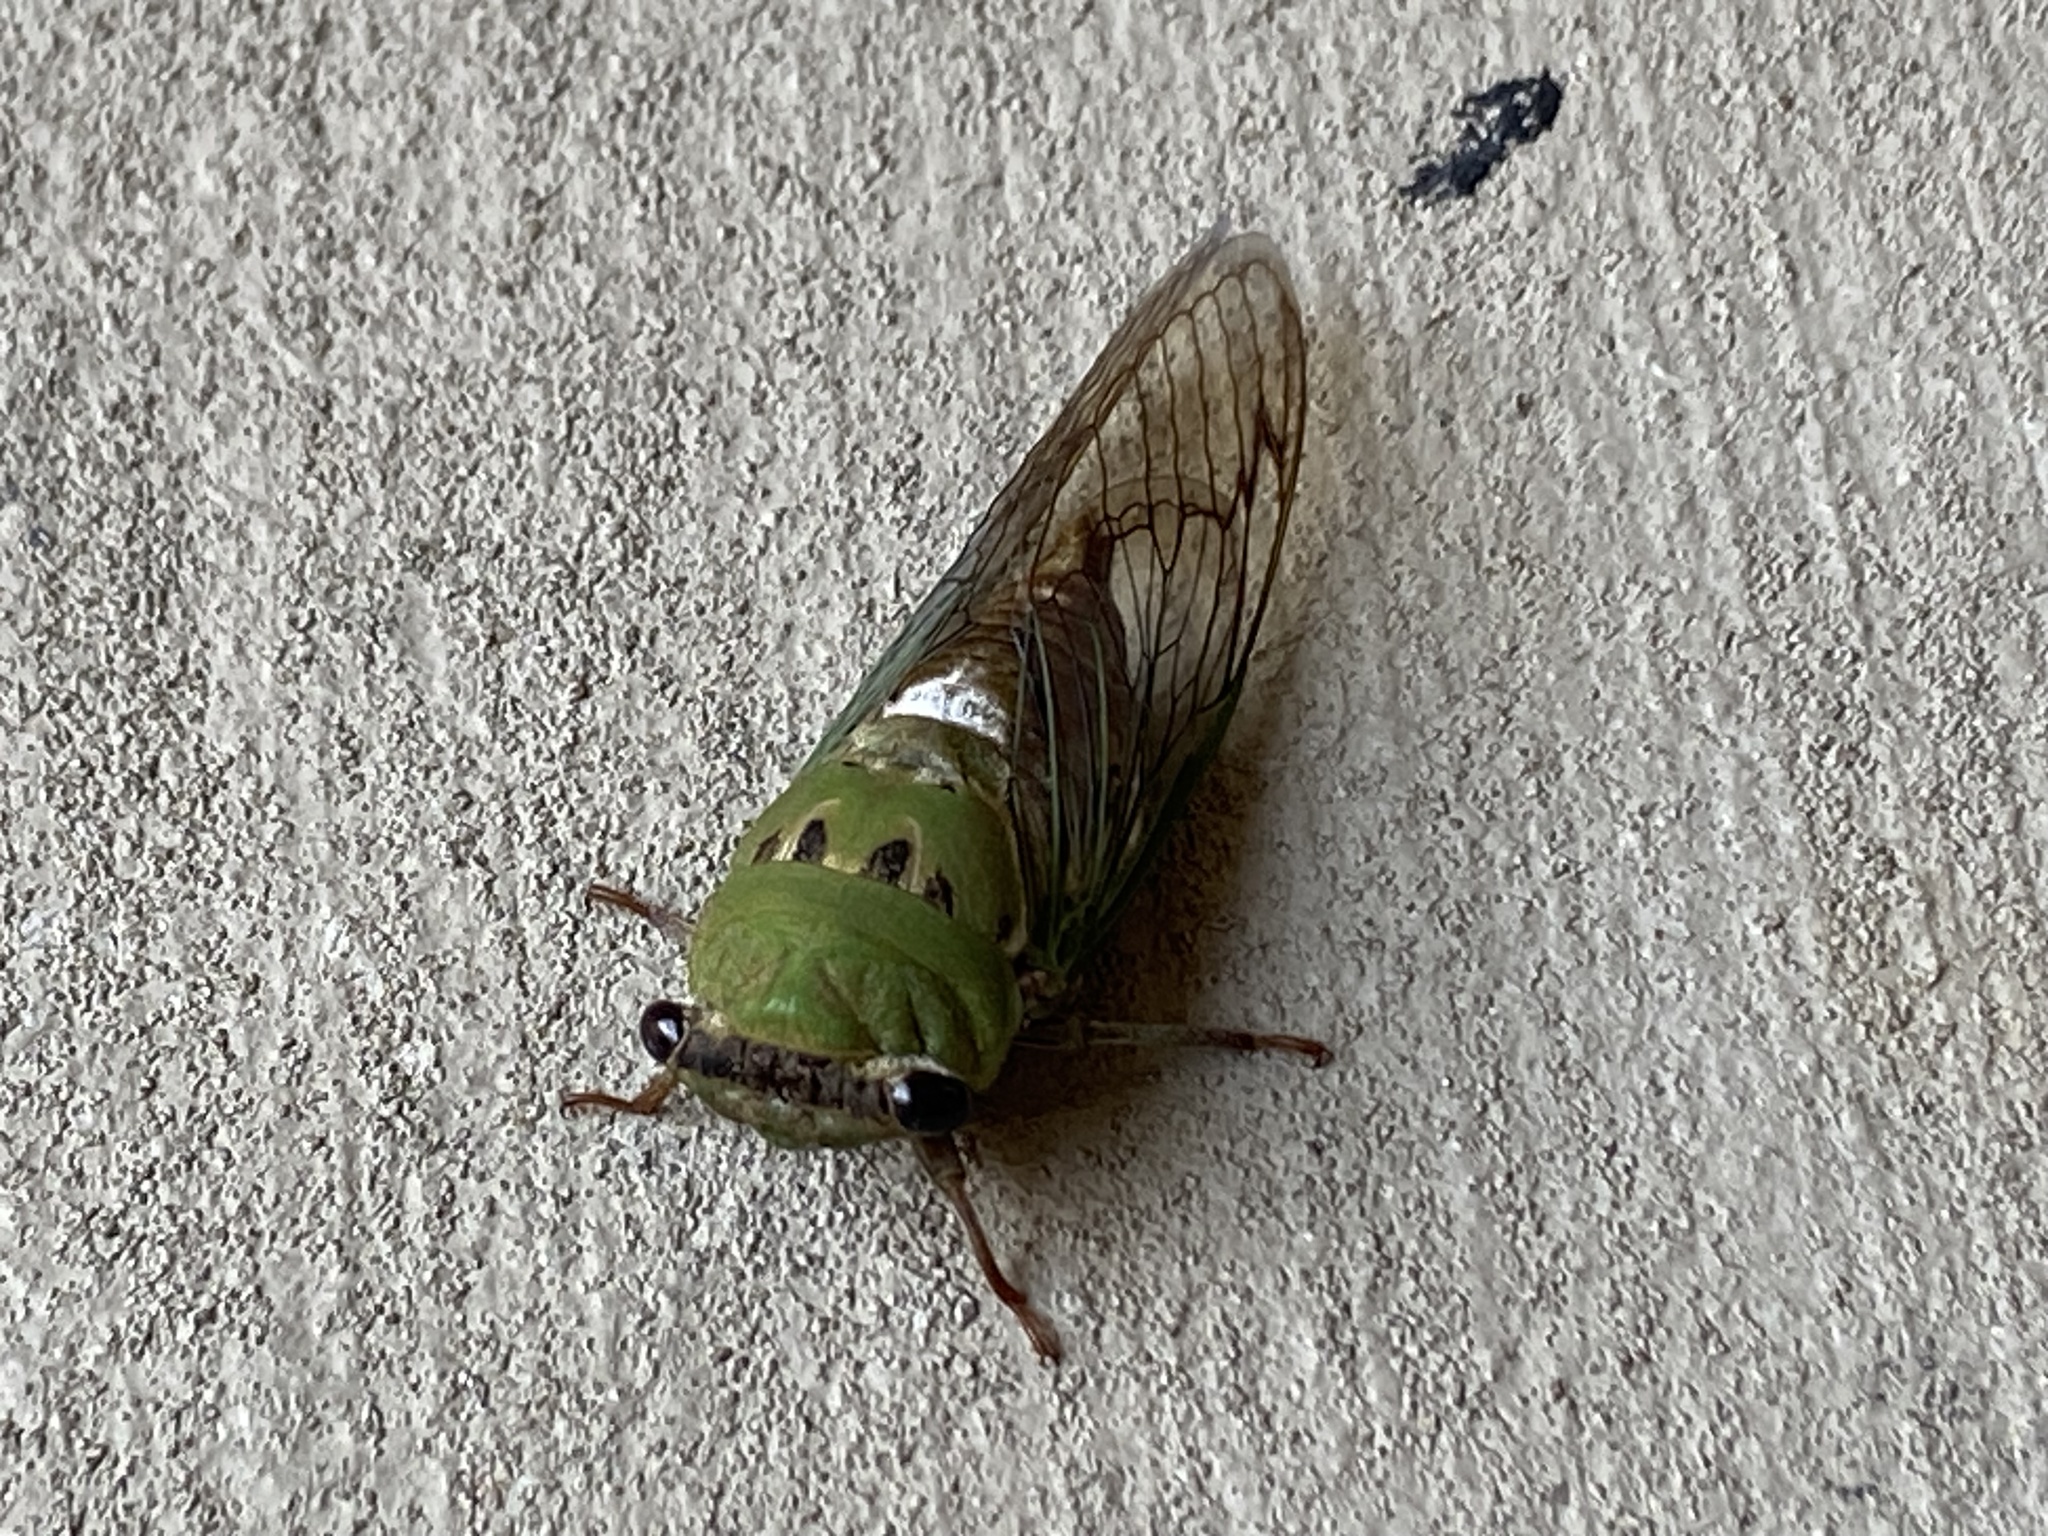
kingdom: Animalia
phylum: Arthropoda
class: Insecta
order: Hemiptera
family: Cicadidae
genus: Neotibicen
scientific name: Neotibicen superbus
